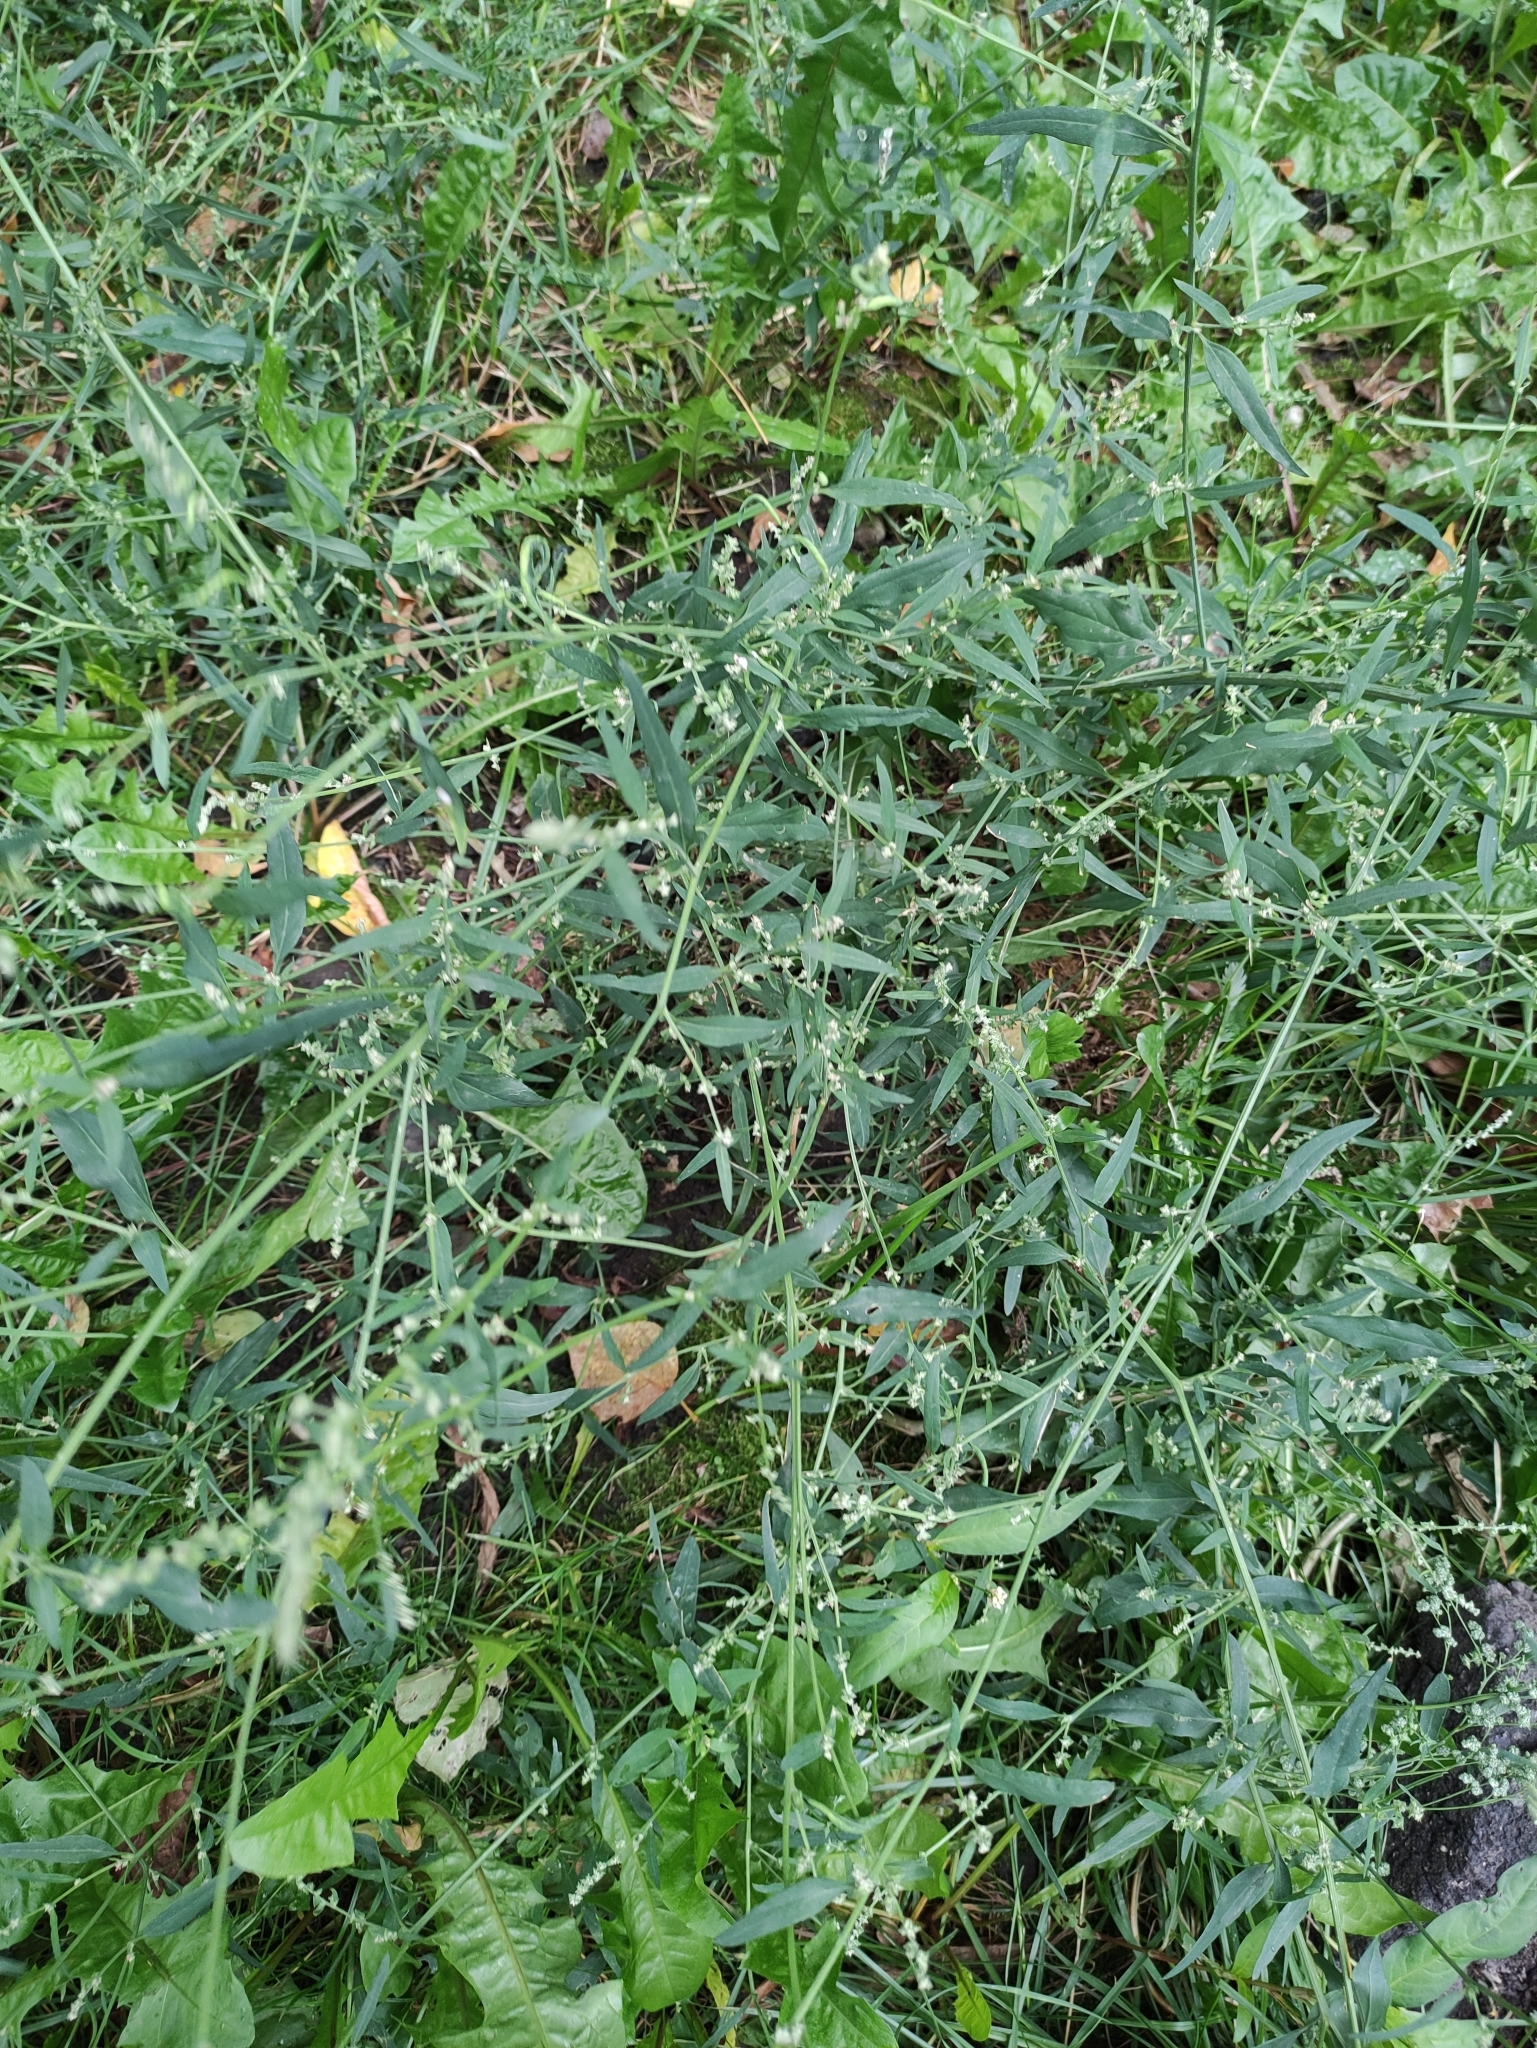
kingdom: Plantae
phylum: Tracheophyta
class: Magnoliopsida
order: Caryophyllales
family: Amaranthaceae
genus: Atriplex
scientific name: Atriplex patula
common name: Common orache
